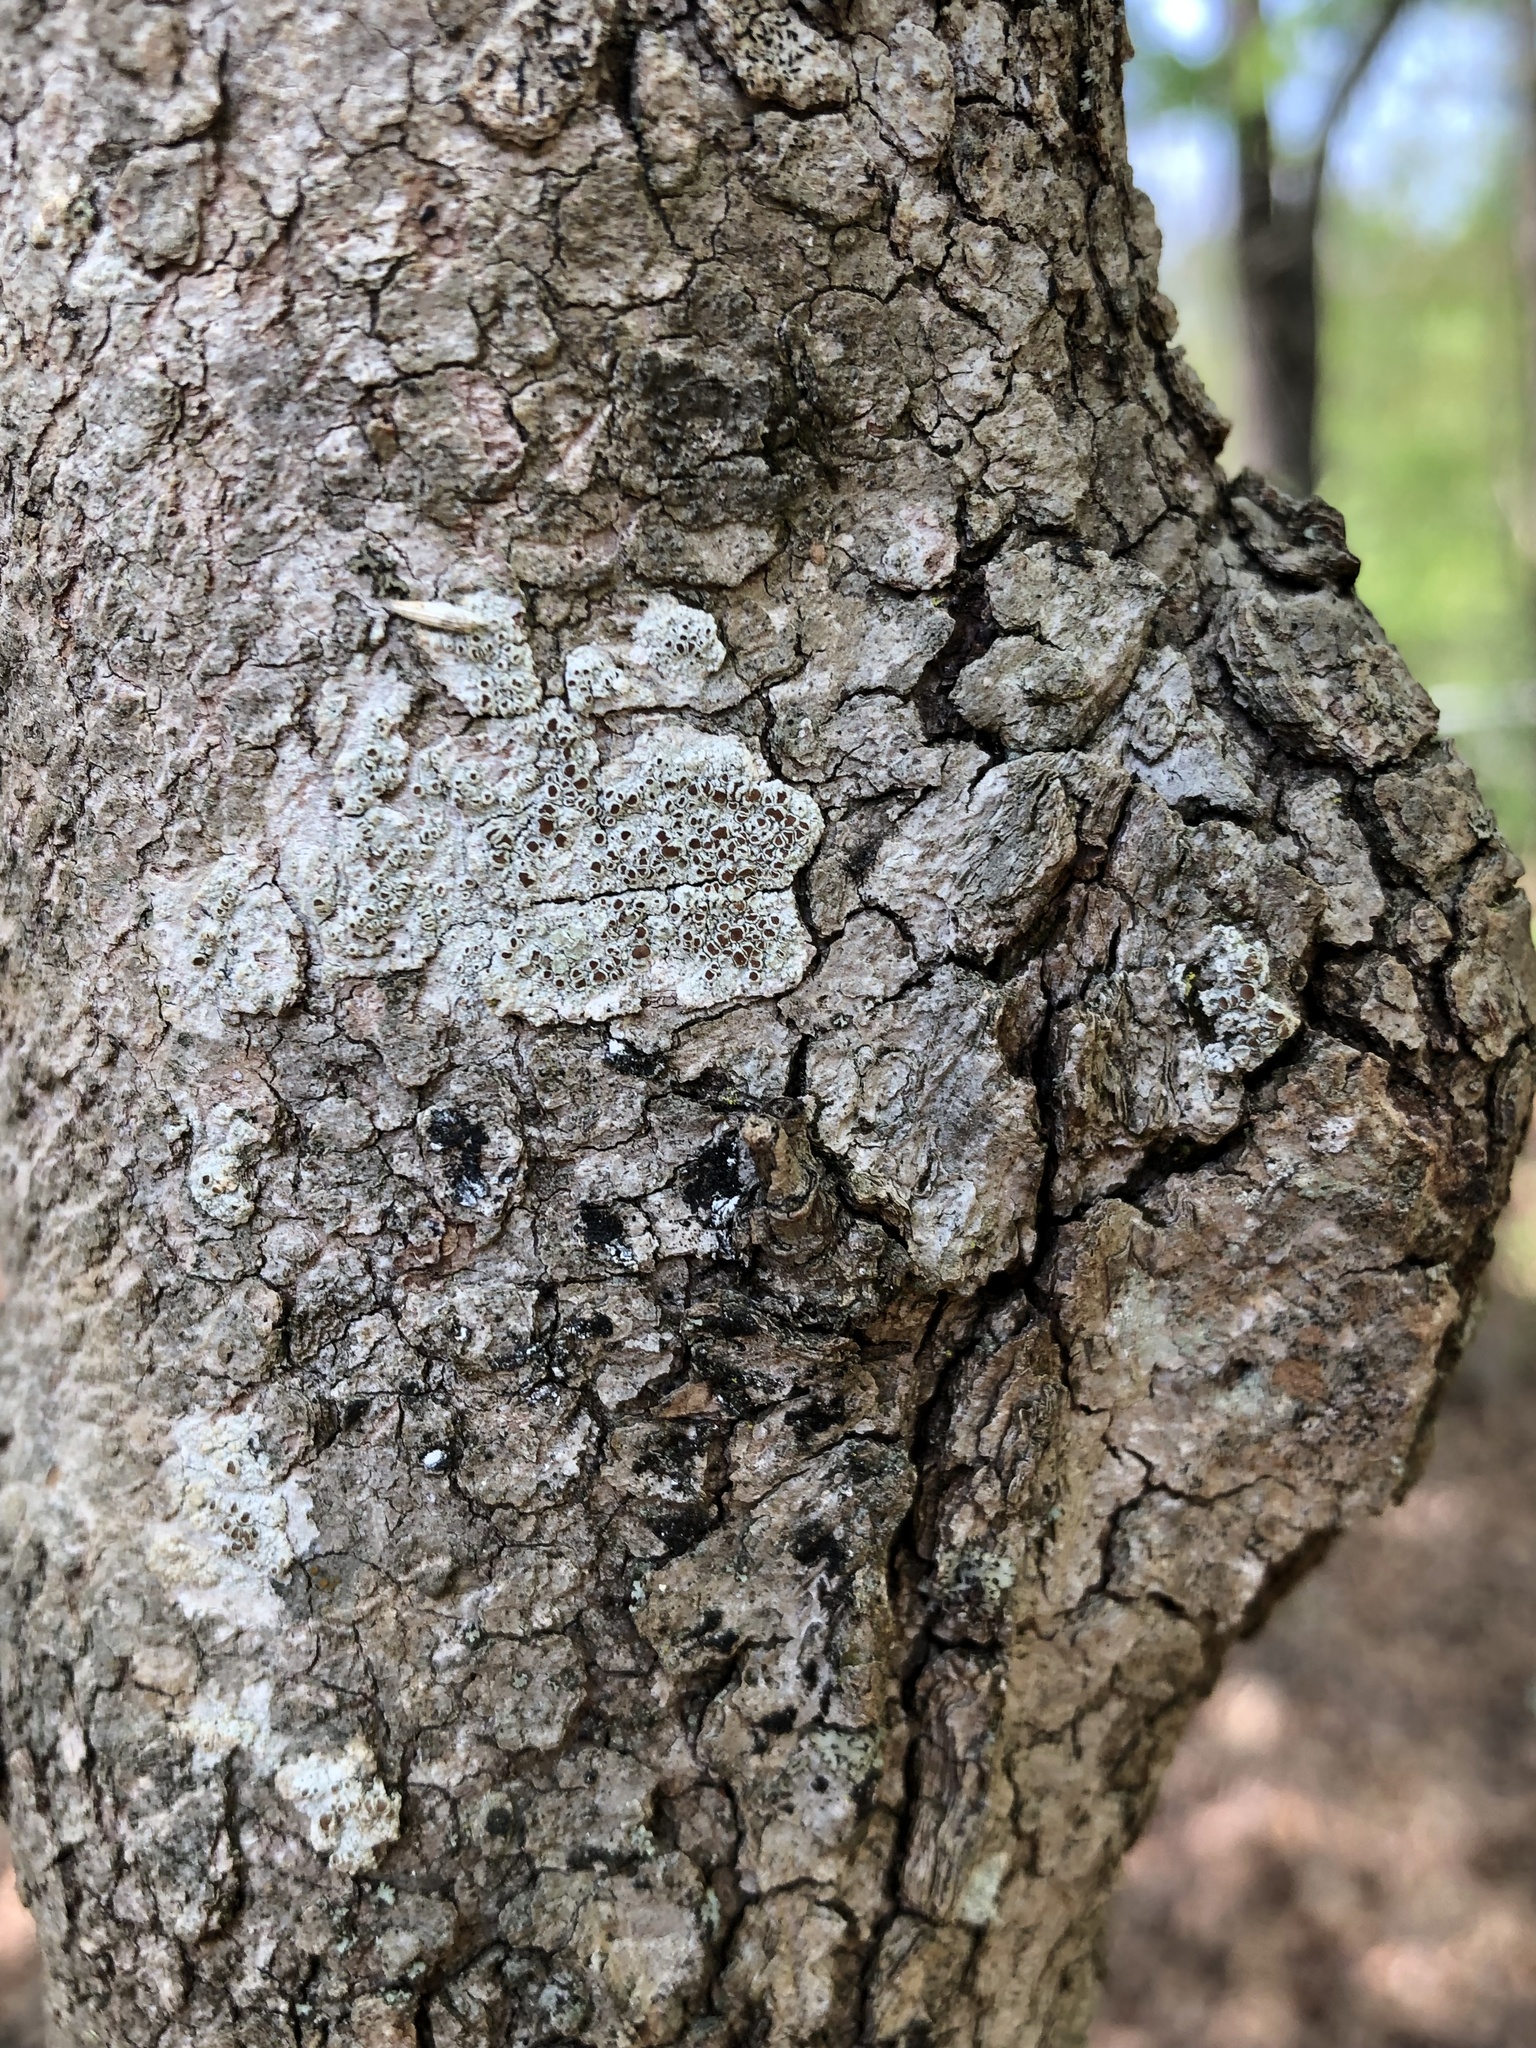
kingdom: Fungi
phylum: Ascomycota
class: Lecanoromycetes
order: Lecanorales
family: Lecanoraceae
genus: Lecanora
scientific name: Lecanora cinereofusca
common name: Beaded rim-lichen
